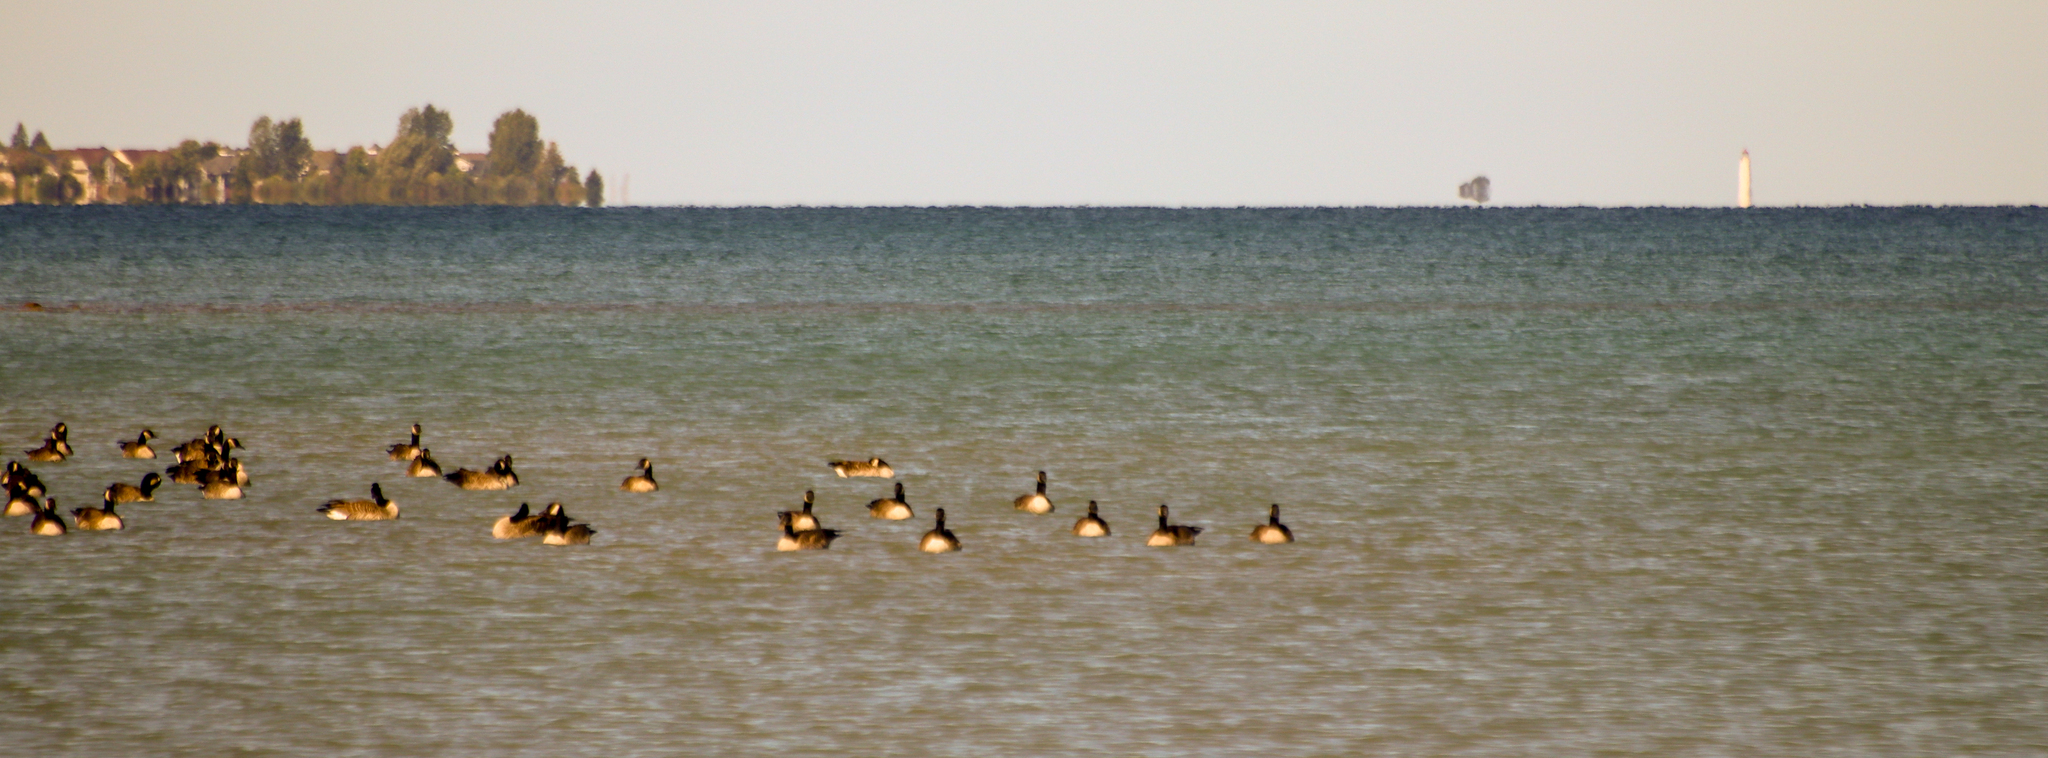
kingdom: Animalia
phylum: Chordata
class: Aves
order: Anseriformes
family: Anatidae
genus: Branta
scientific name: Branta canadensis
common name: Canada goose
